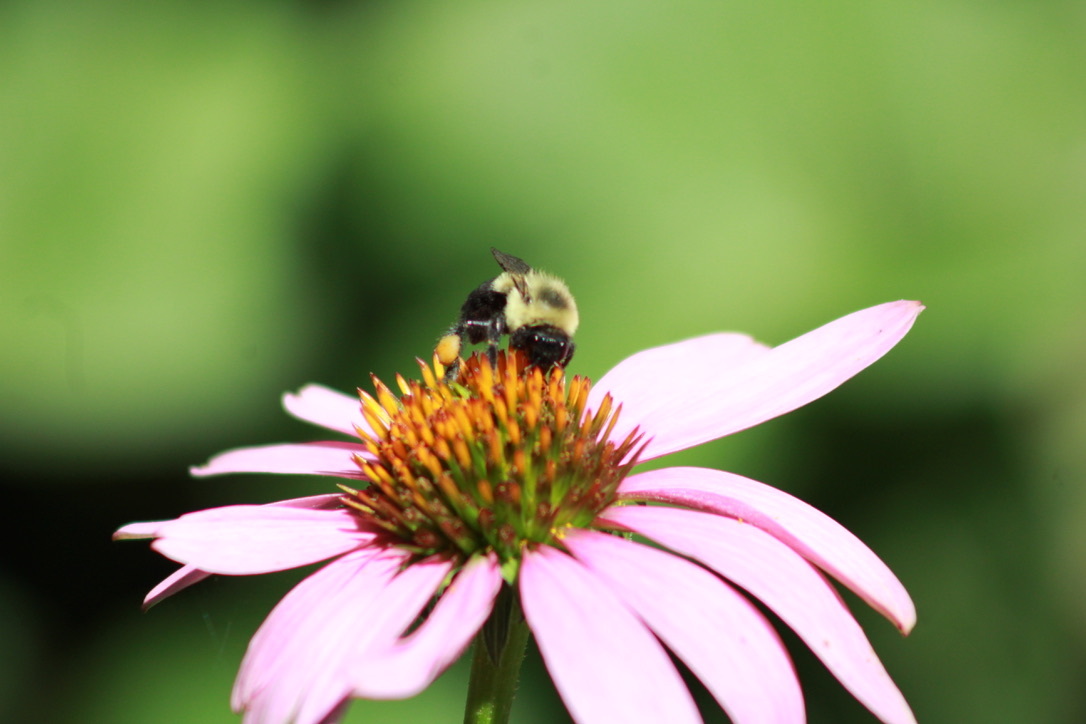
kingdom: Animalia
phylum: Arthropoda
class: Insecta
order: Hymenoptera
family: Apidae
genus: Bombus
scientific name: Bombus impatiens
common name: Common eastern bumble bee
